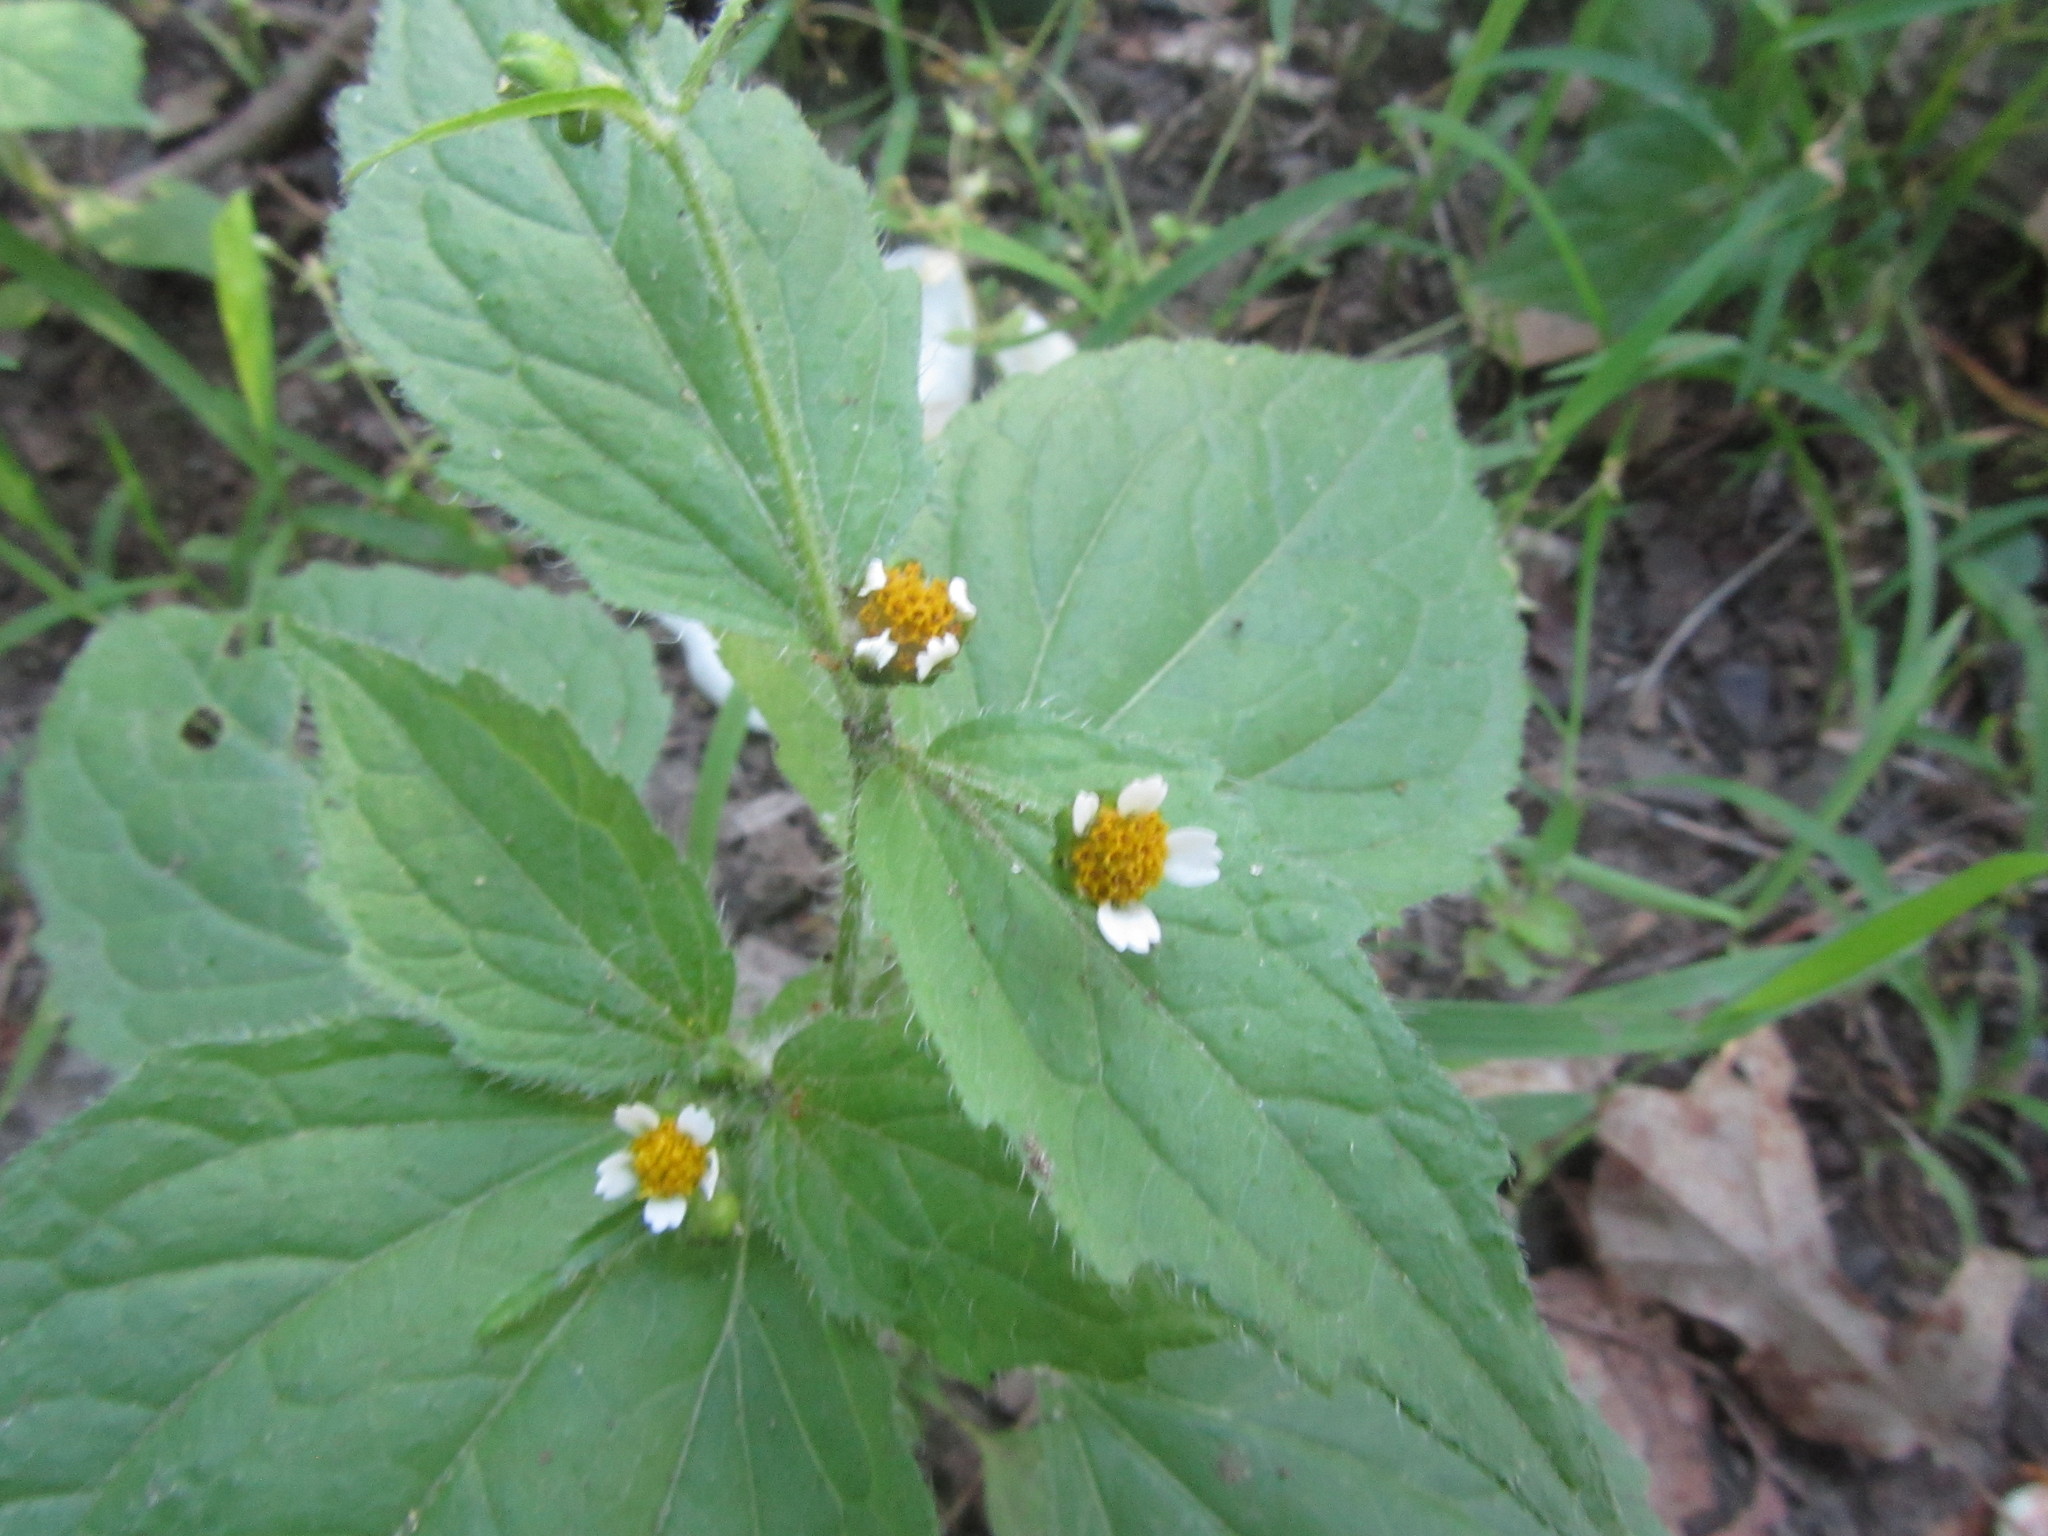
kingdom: Plantae
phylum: Tracheophyta
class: Magnoliopsida
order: Asterales
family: Asteraceae
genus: Galinsoga
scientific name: Galinsoga quadriradiata
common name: Shaggy soldier
